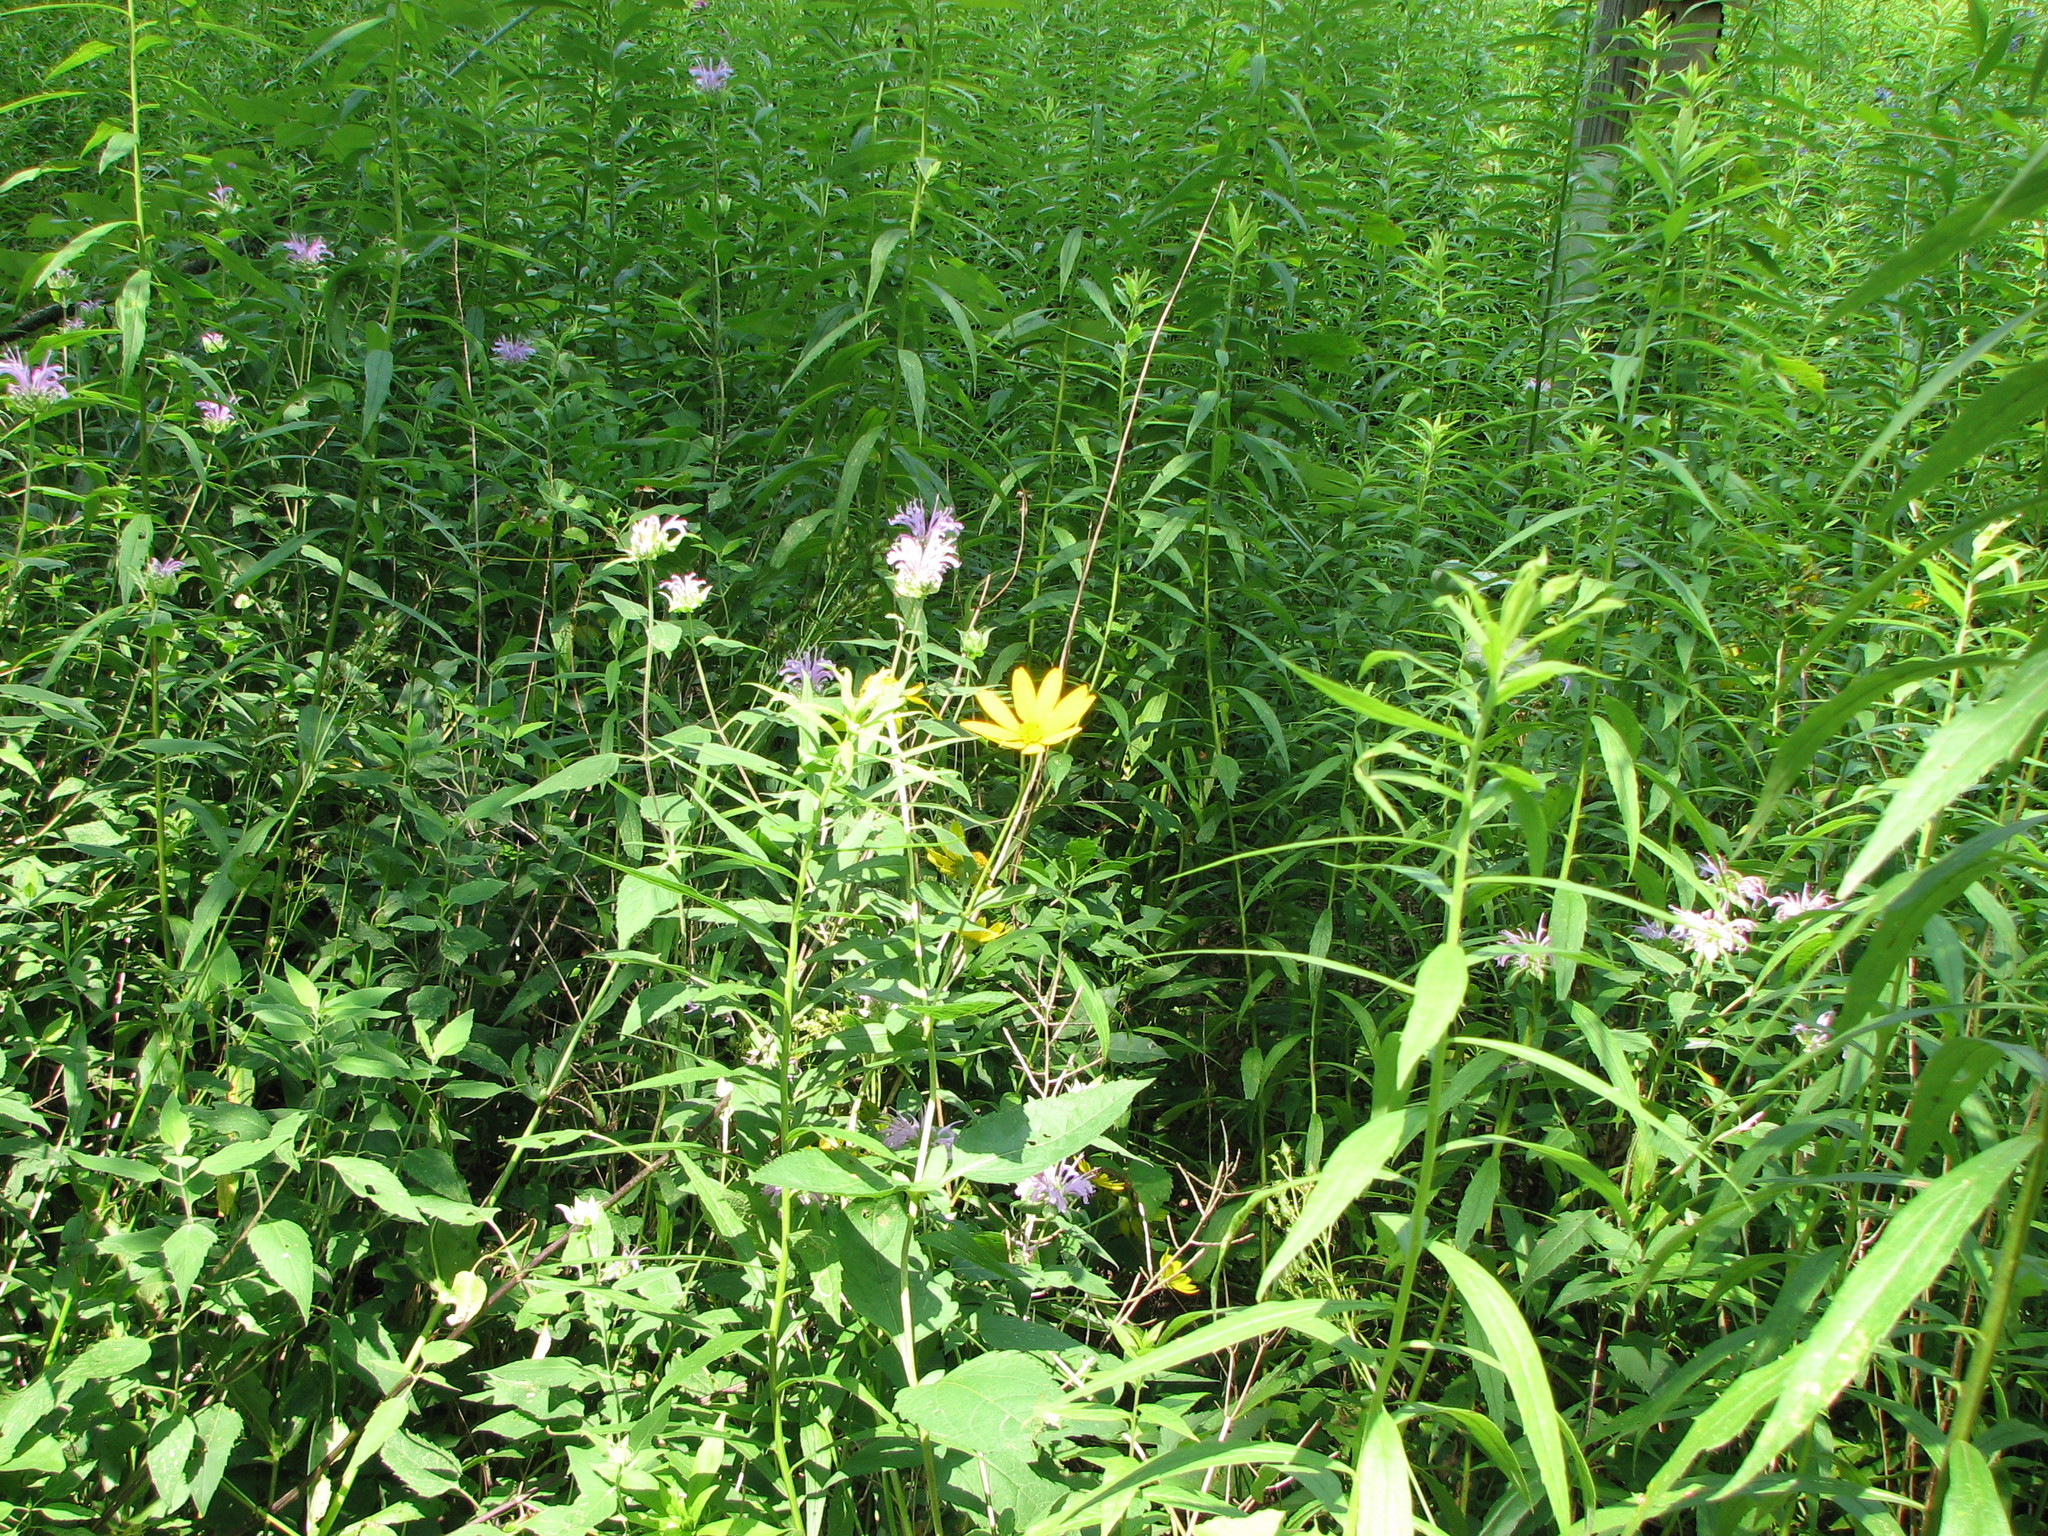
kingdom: Plantae
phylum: Tracheophyta
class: Magnoliopsida
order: Lamiales
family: Lamiaceae
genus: Monarda
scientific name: Monarda fistulosa
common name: Purple beebalm
